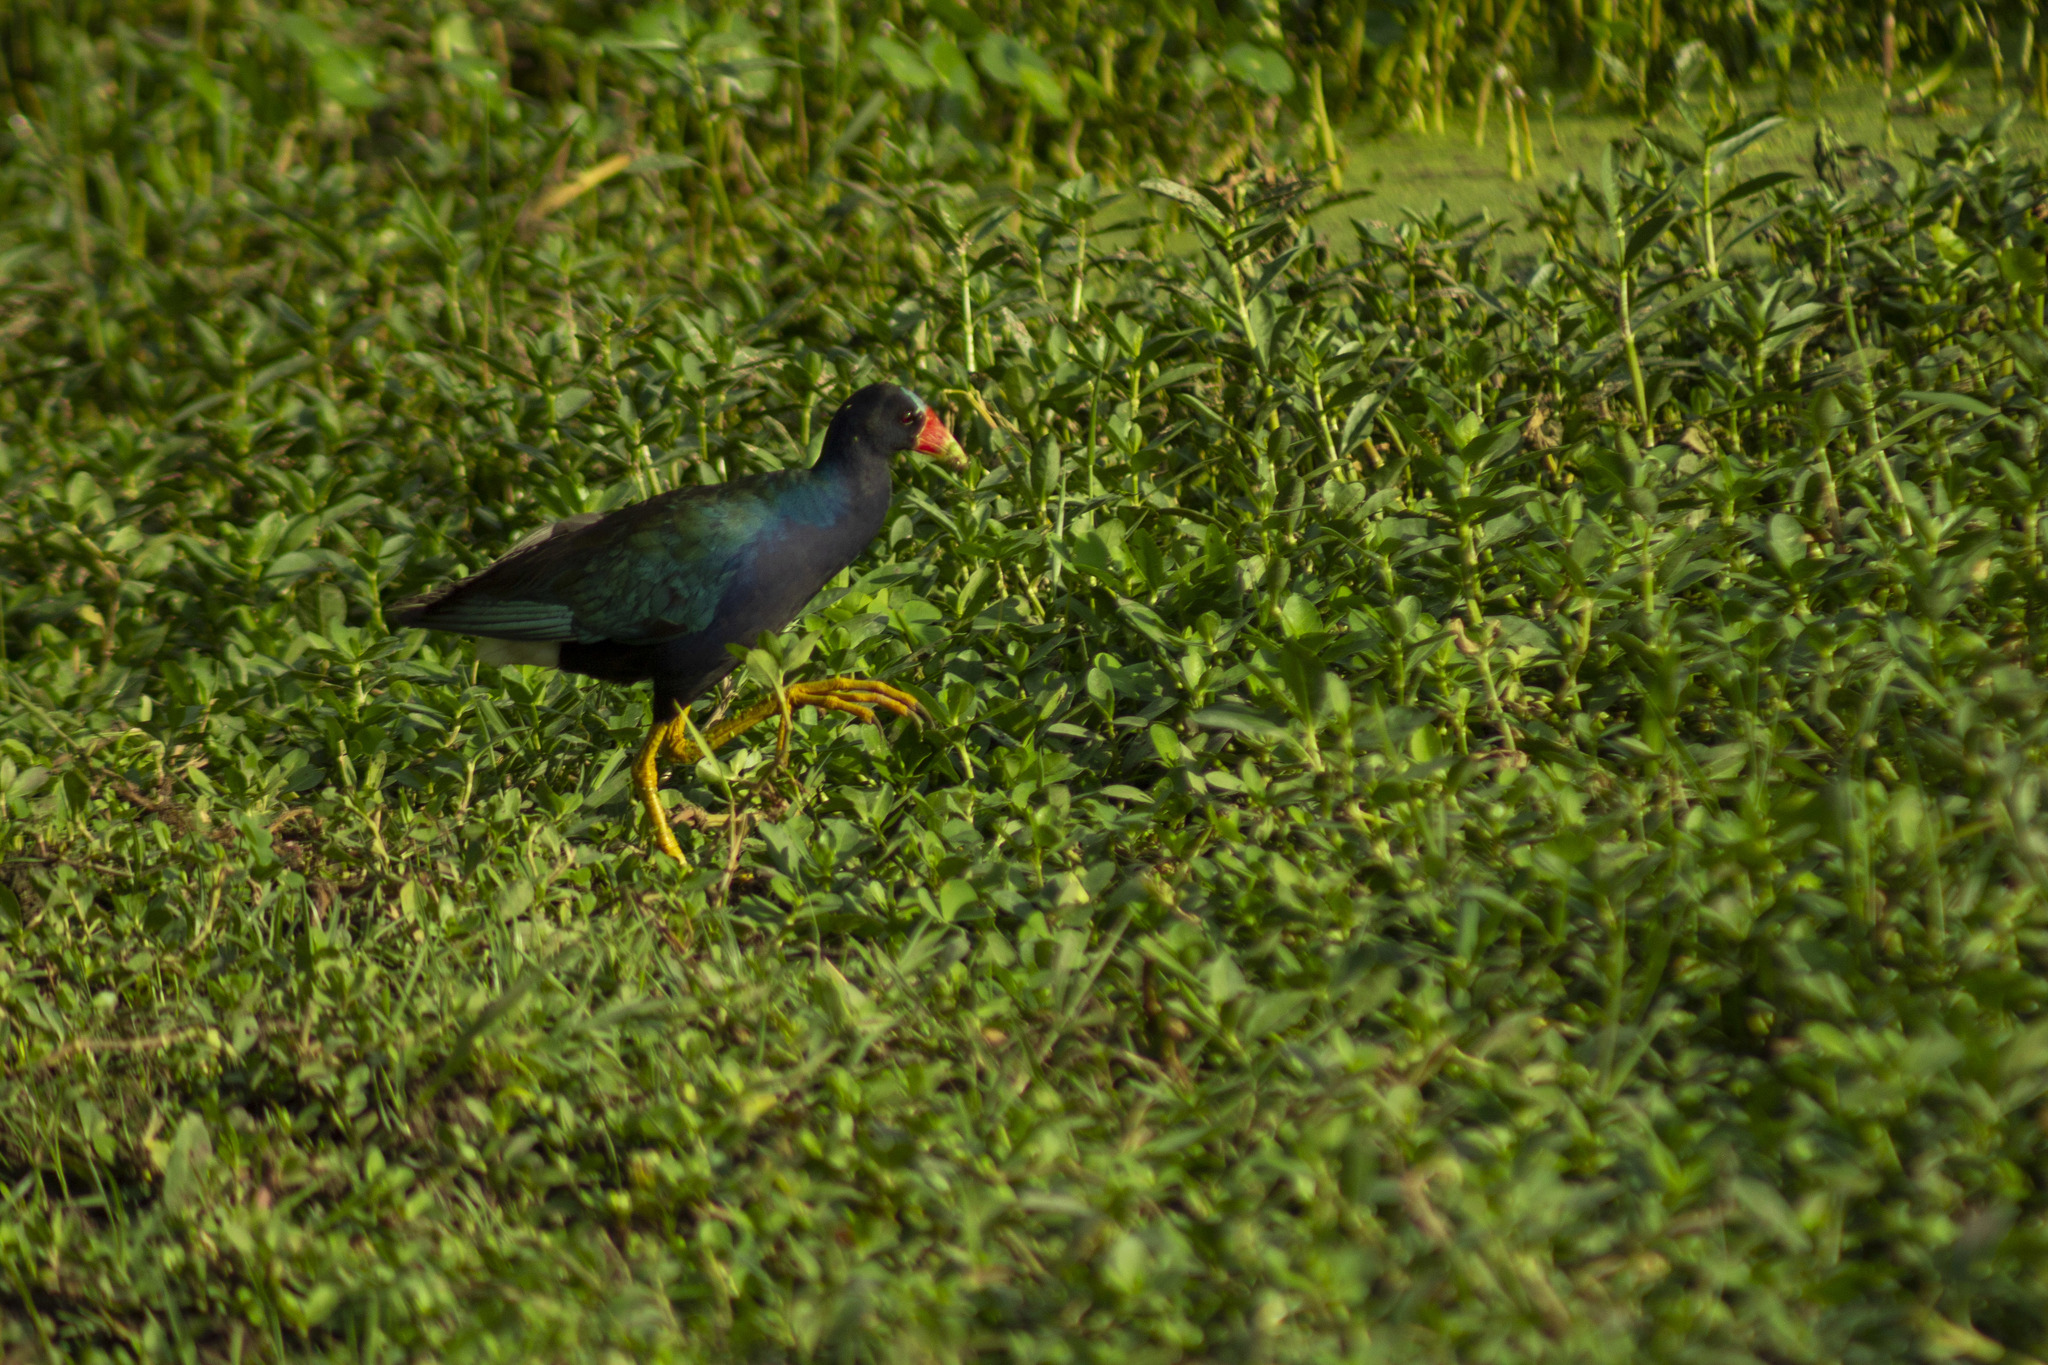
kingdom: Animalia
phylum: Chordata
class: Aves
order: Gruiformes
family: Rallidae
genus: Porphyrio
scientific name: Porphyrio martinica
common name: Purple gallinule
